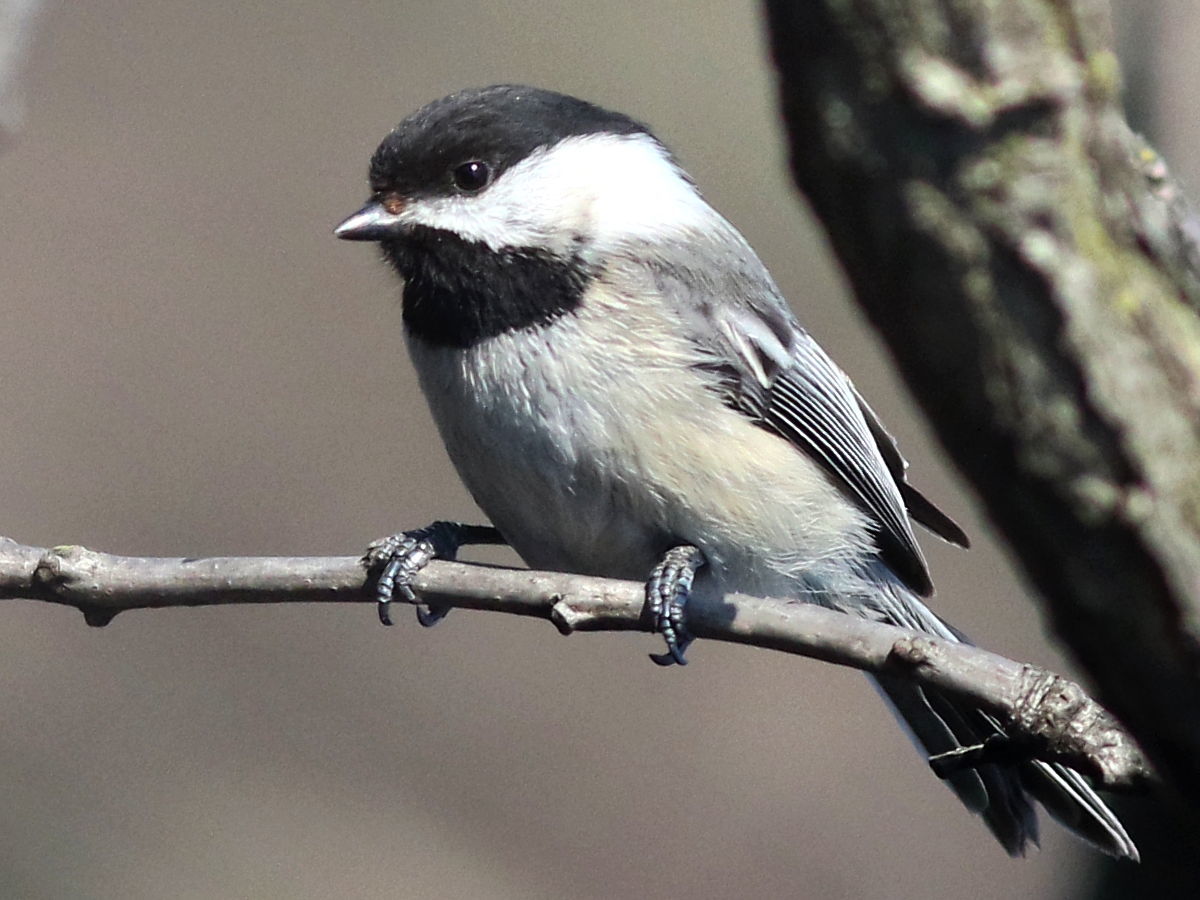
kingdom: Animalia
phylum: Chordata
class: Aves
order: Passeriformes
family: Paridae
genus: Poecile
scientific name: Poecile atricapillus
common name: Black-capped chickadee
